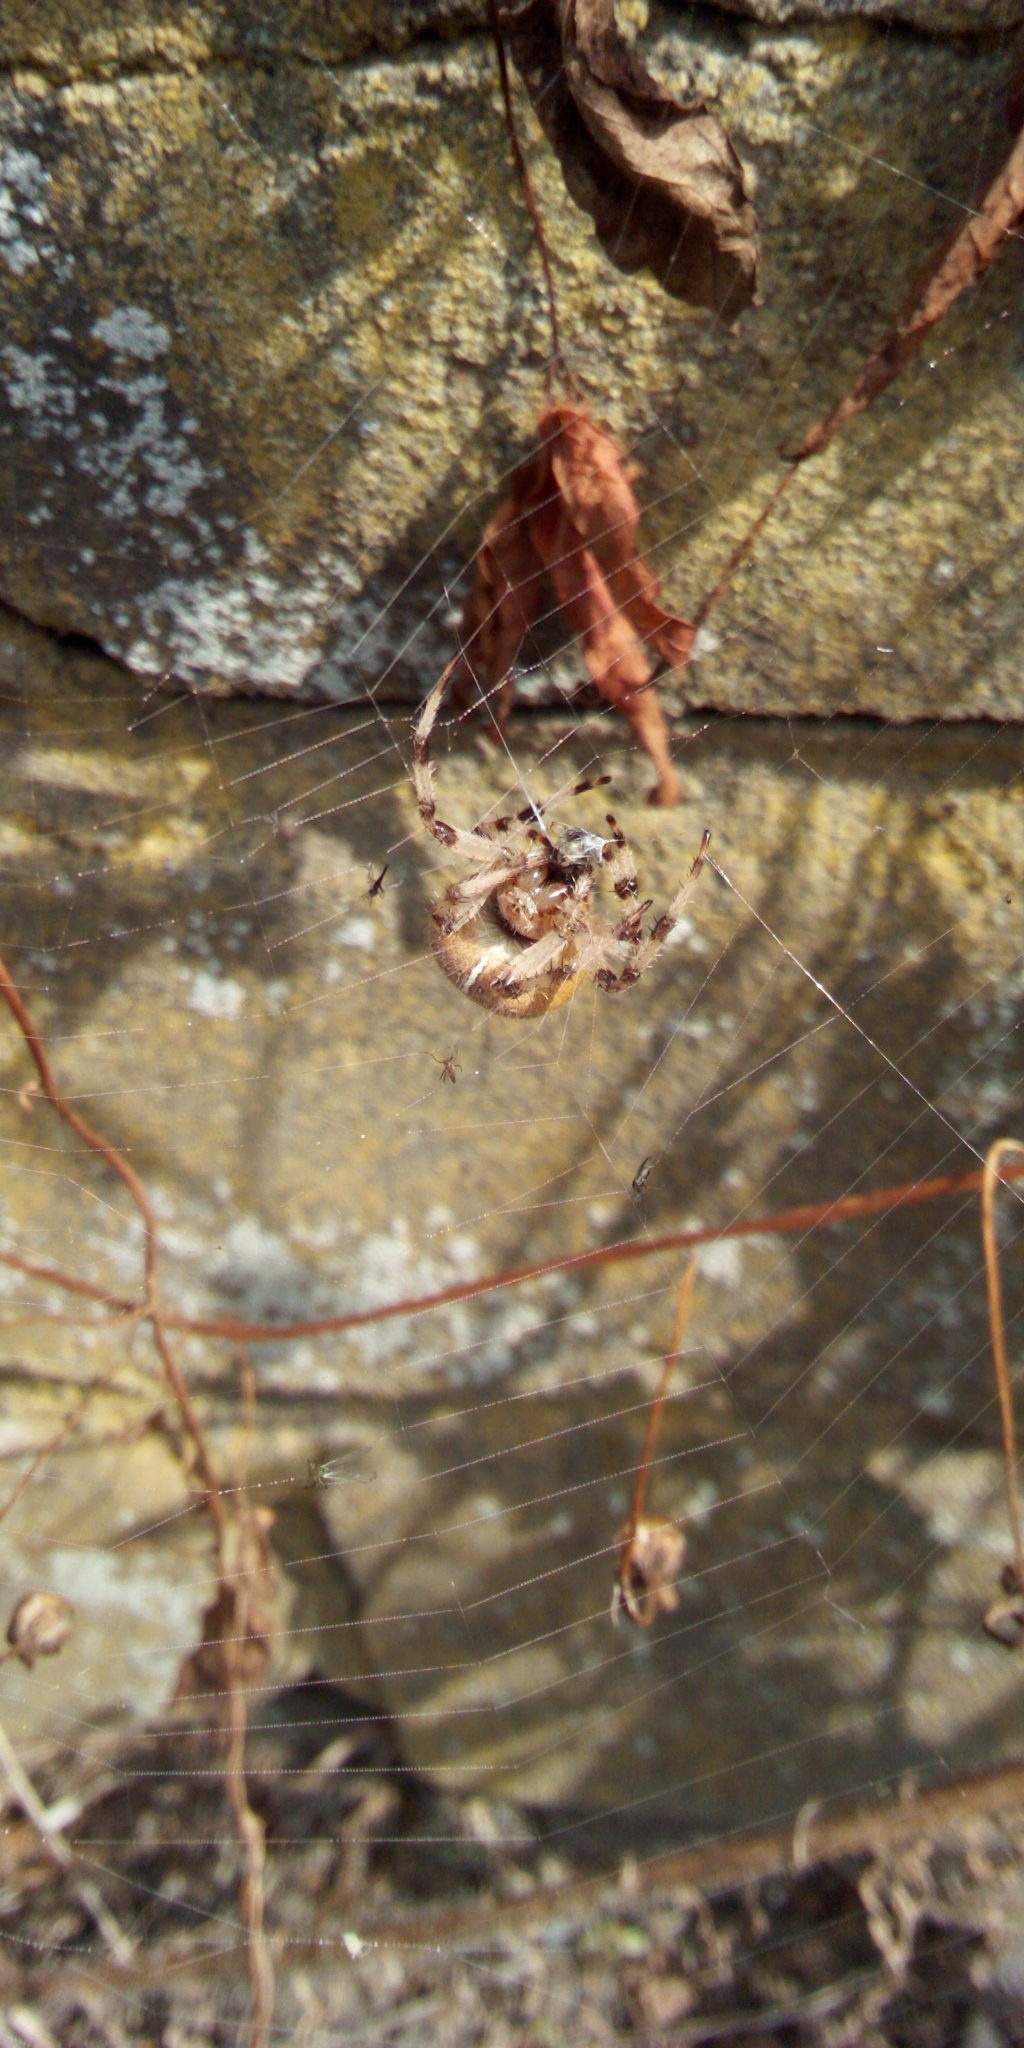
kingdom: Animalia
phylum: Arthropoda
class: Arachnida
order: Araneae
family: Araneidae
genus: Araneus
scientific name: Araneus quadratus
